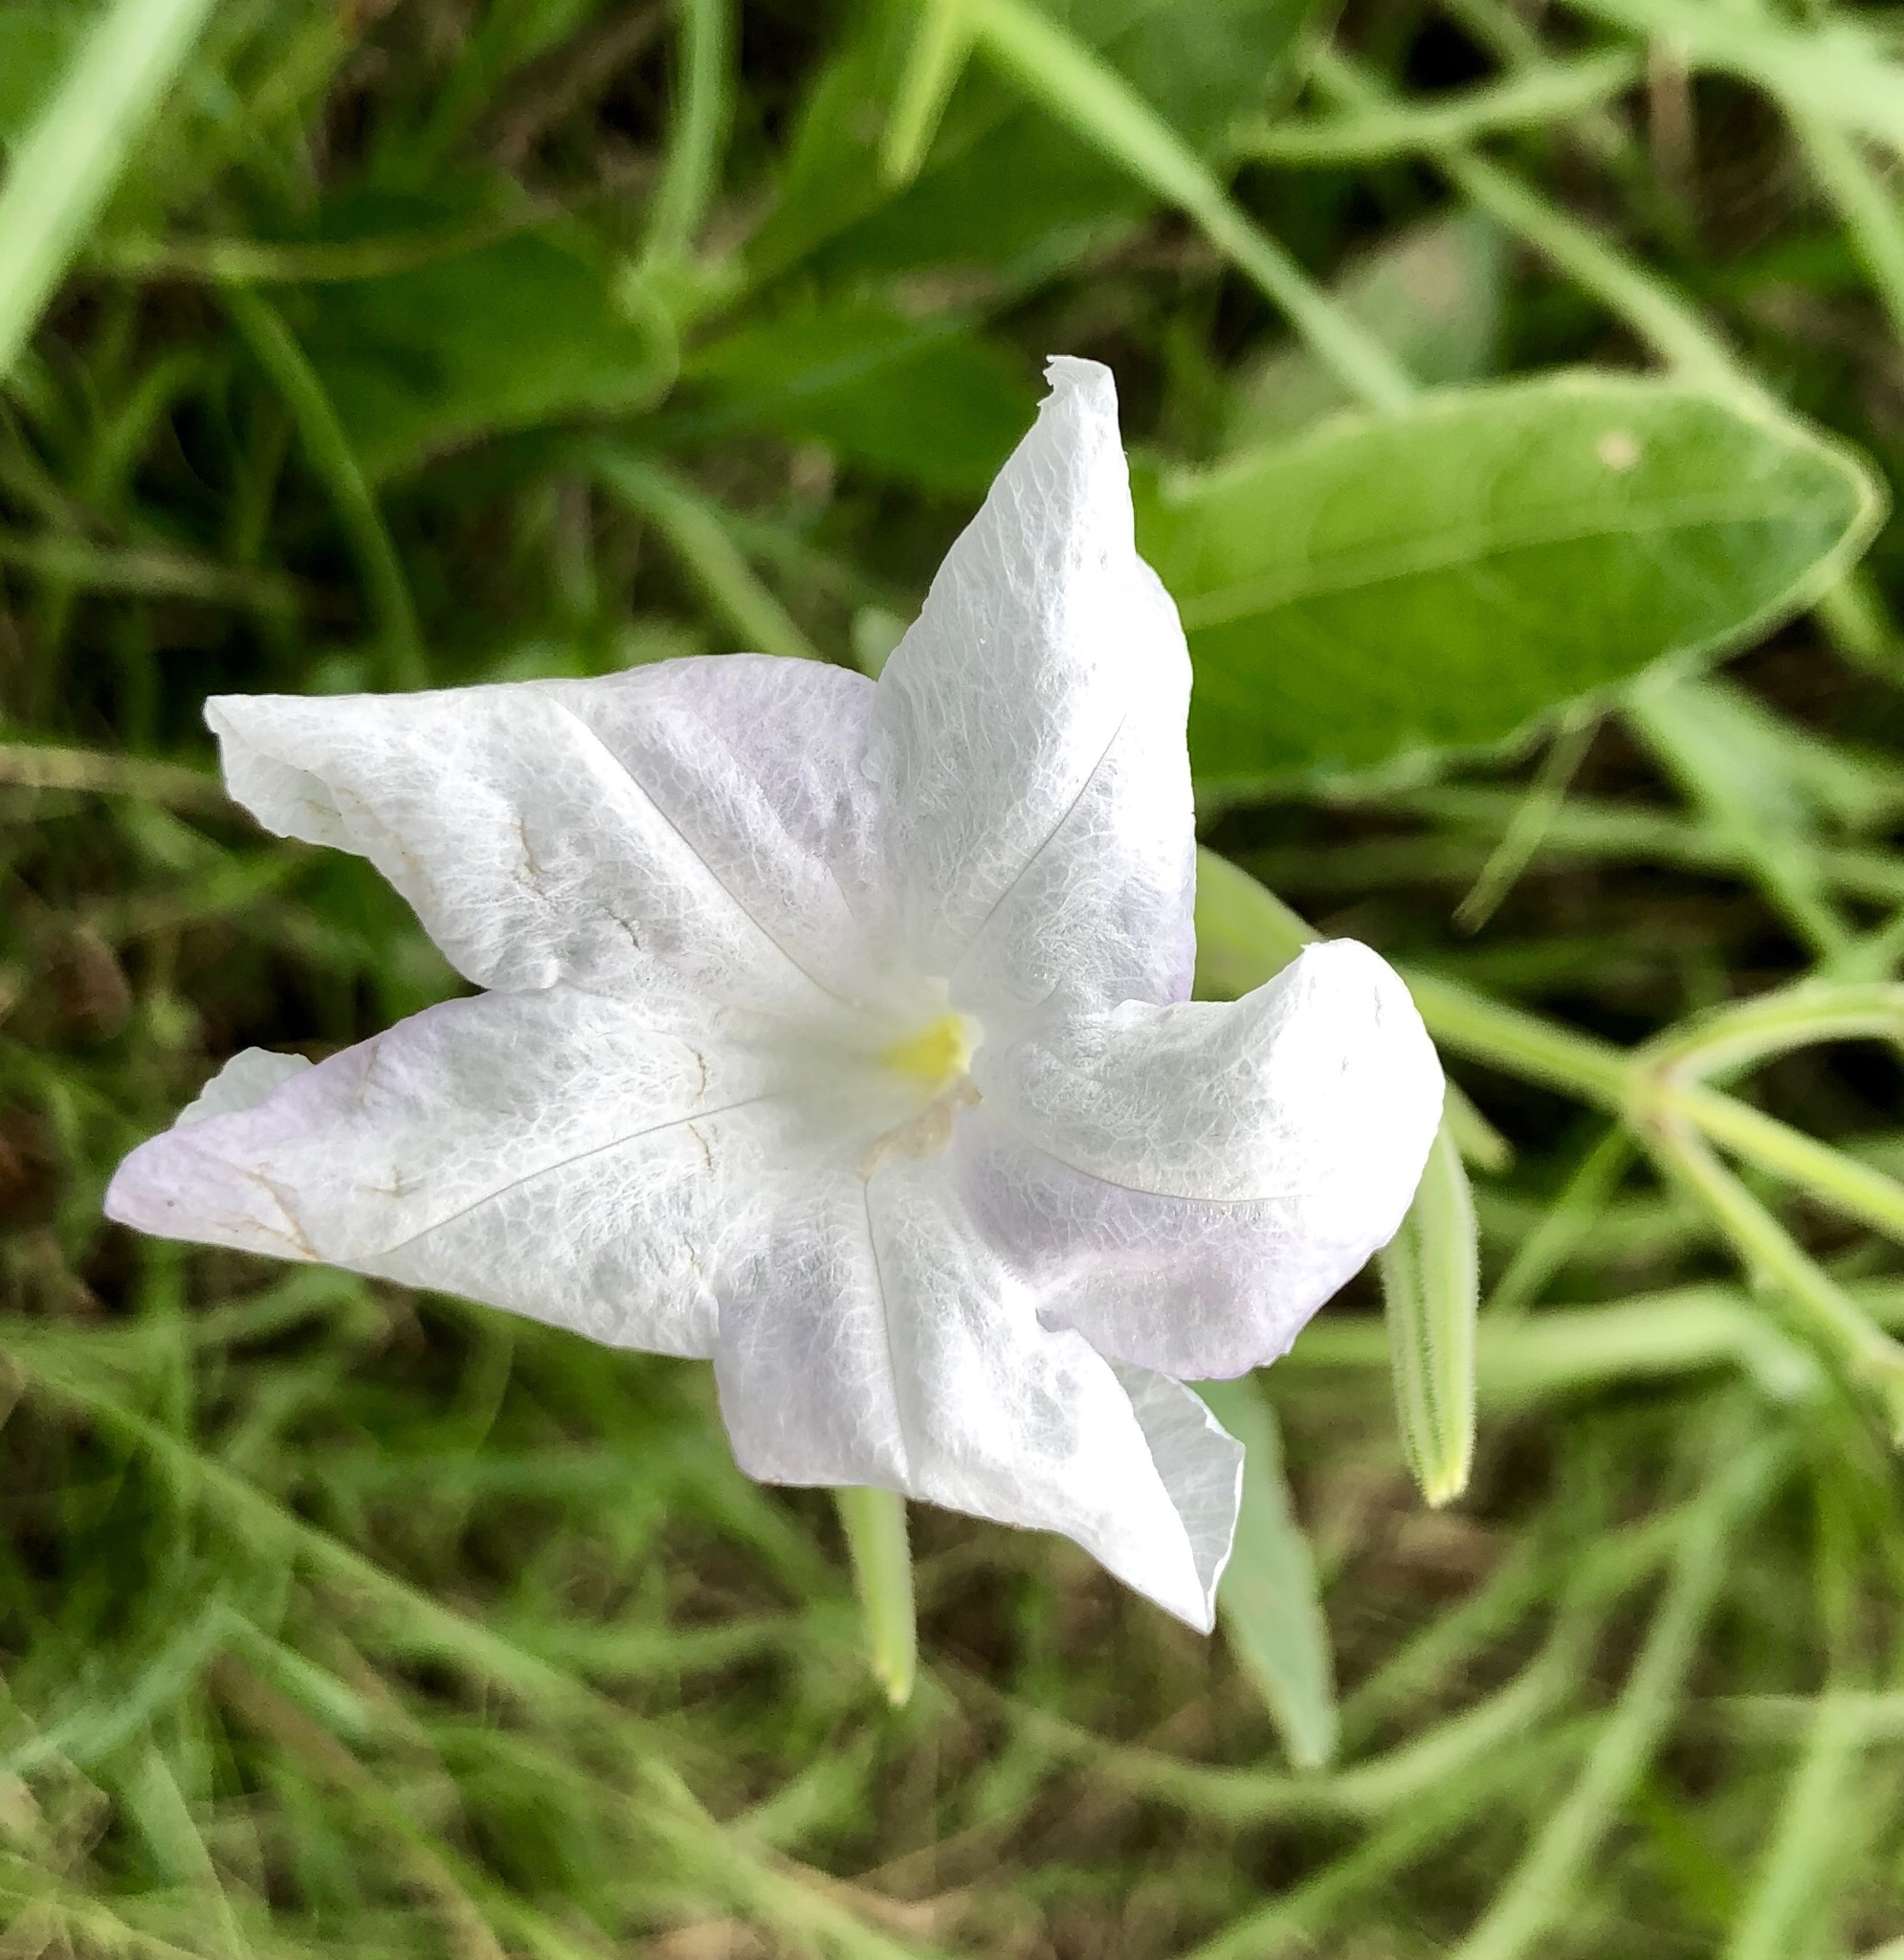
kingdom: Plantae
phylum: Tracheophyta
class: Magnoliopsida
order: Lamiales
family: Acanthaceae
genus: Ruellia
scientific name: Ruellia metziae
